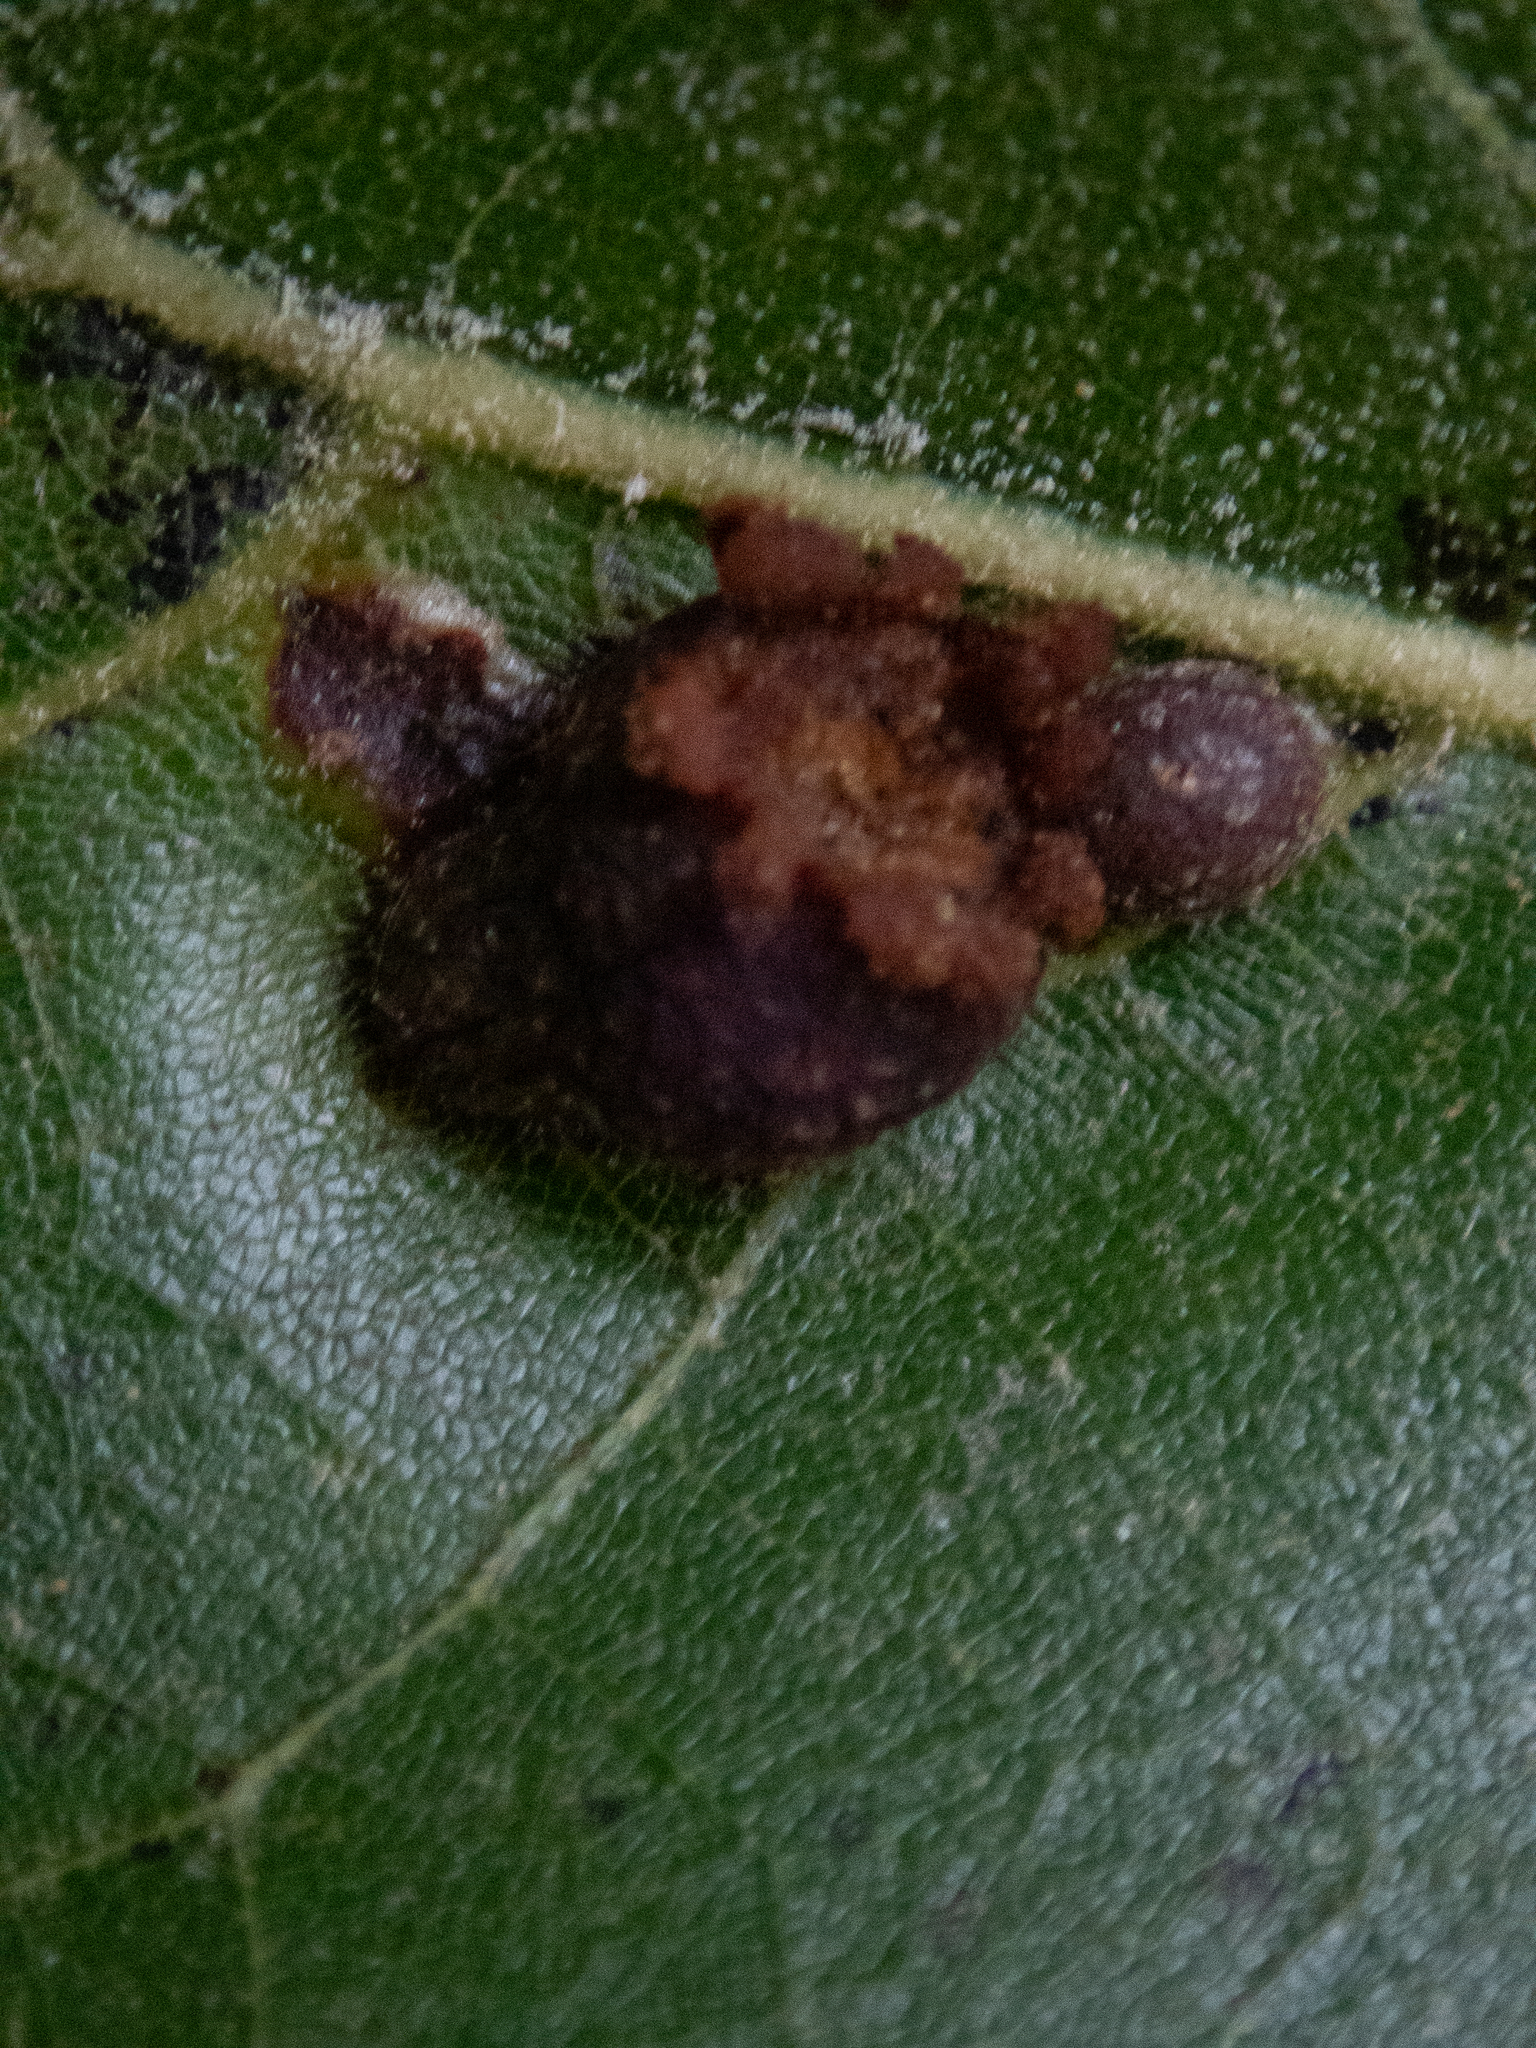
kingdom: Animalia
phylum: Arthropoda
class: Insecta
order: Diptera
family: Cecidomyiidae
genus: Polystepha
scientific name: Polystepha pilulae
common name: Oak leaf gall midge
